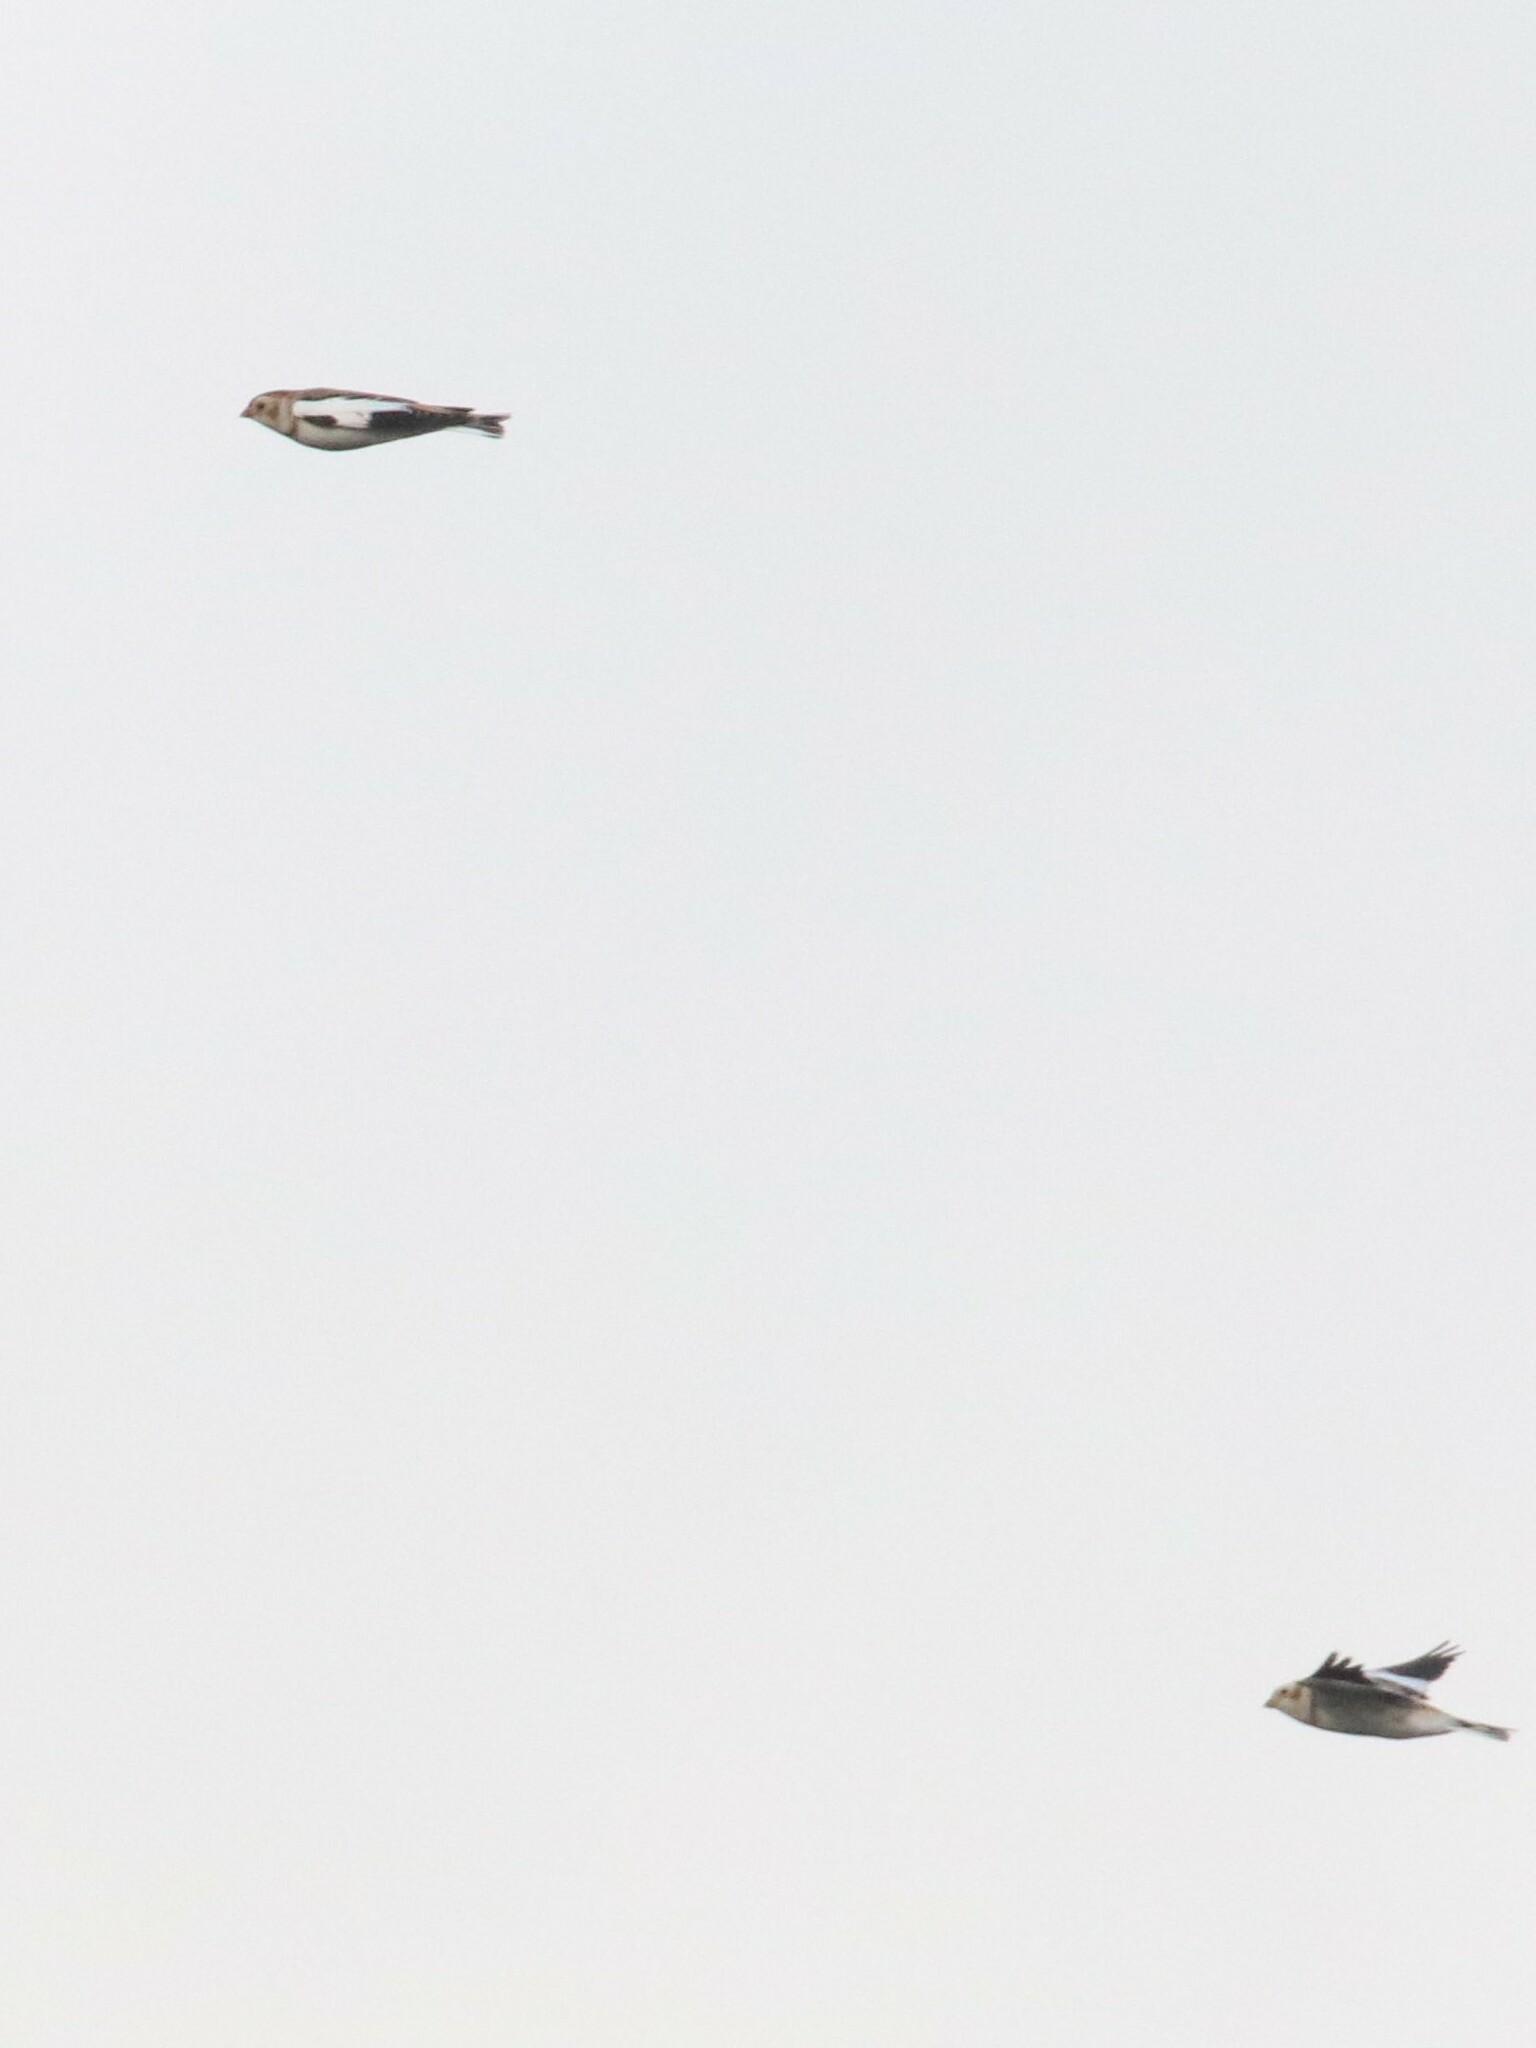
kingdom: Animalia
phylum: Chordata
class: Aves
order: Passeriformes
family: Calcariidae
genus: Plectrophenax
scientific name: Plectrophenax nivalis
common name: Snow bunting
